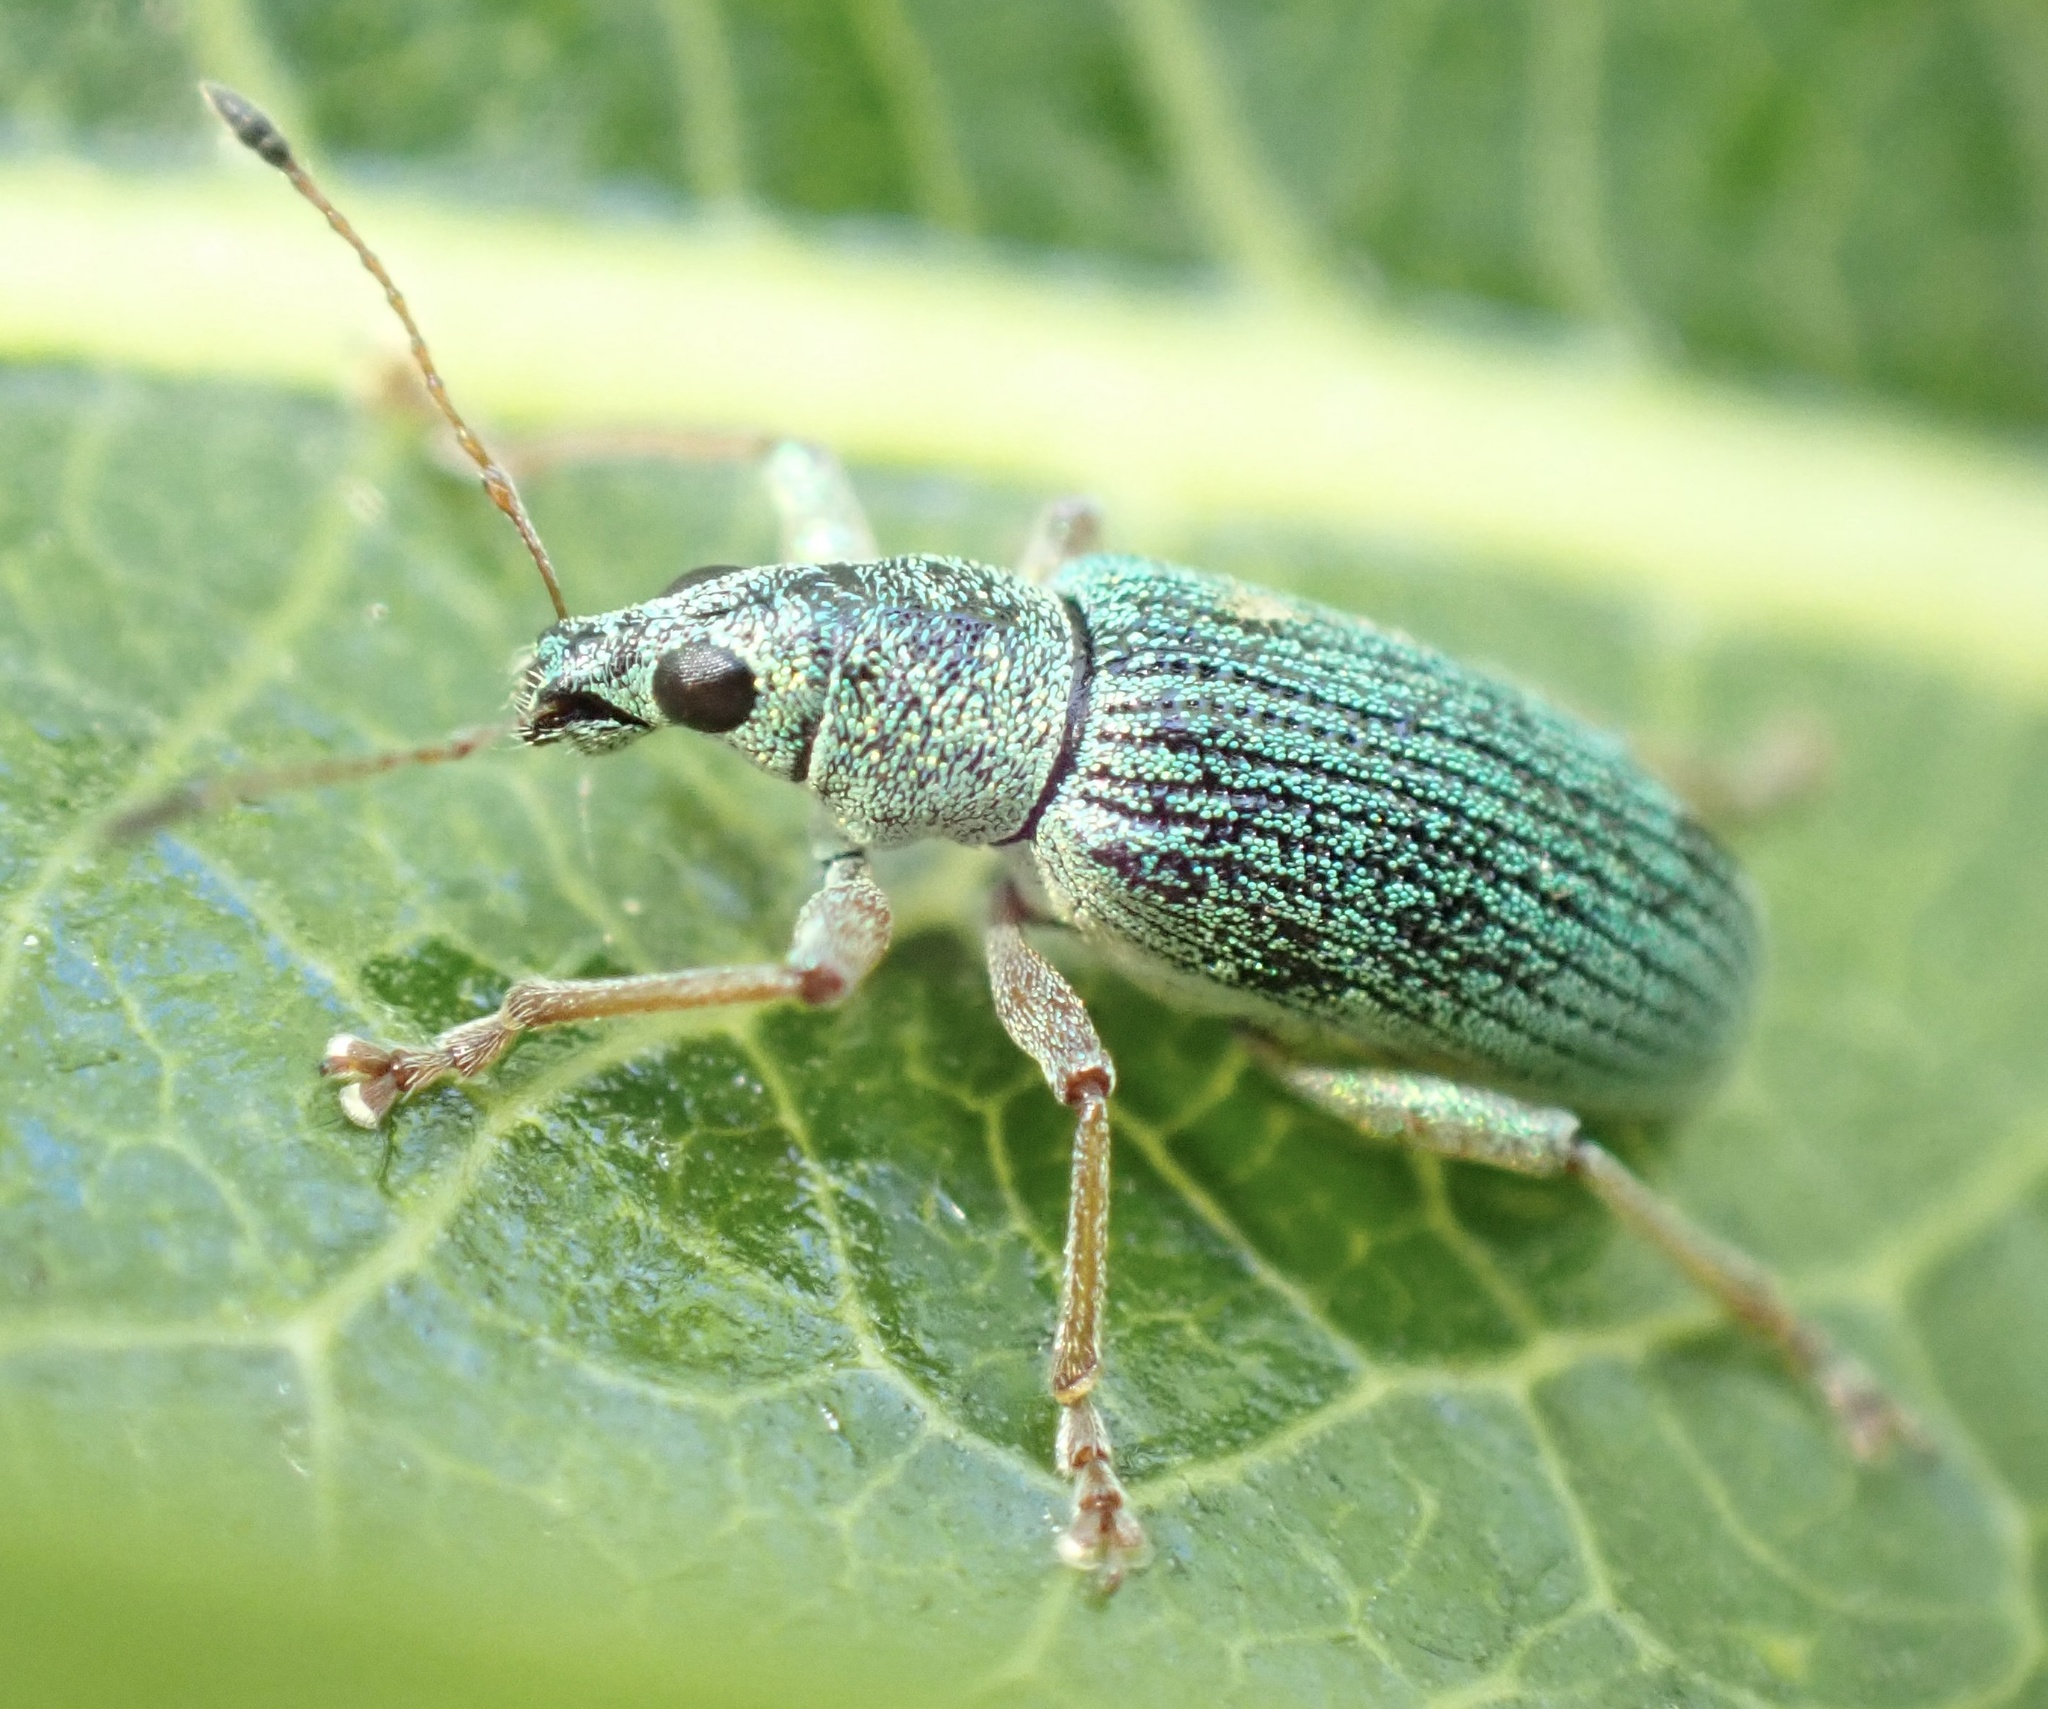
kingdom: Animalia
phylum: Arthropoda
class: Insecta
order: Coleoptera
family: Curculionidae
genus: Polydrusus
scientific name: Polydrusus formosus
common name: Weevil
